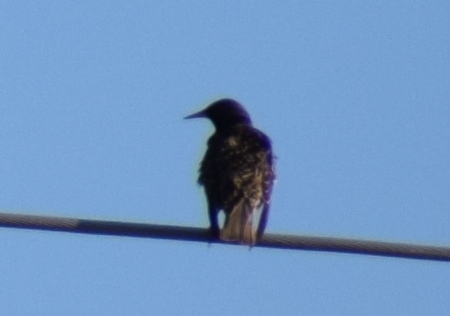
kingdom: Animalia
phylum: Chordata
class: Aves
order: Passeriformes
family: Sturnidae
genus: Sturnus
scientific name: Sturnus vulgaris
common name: Common starling
